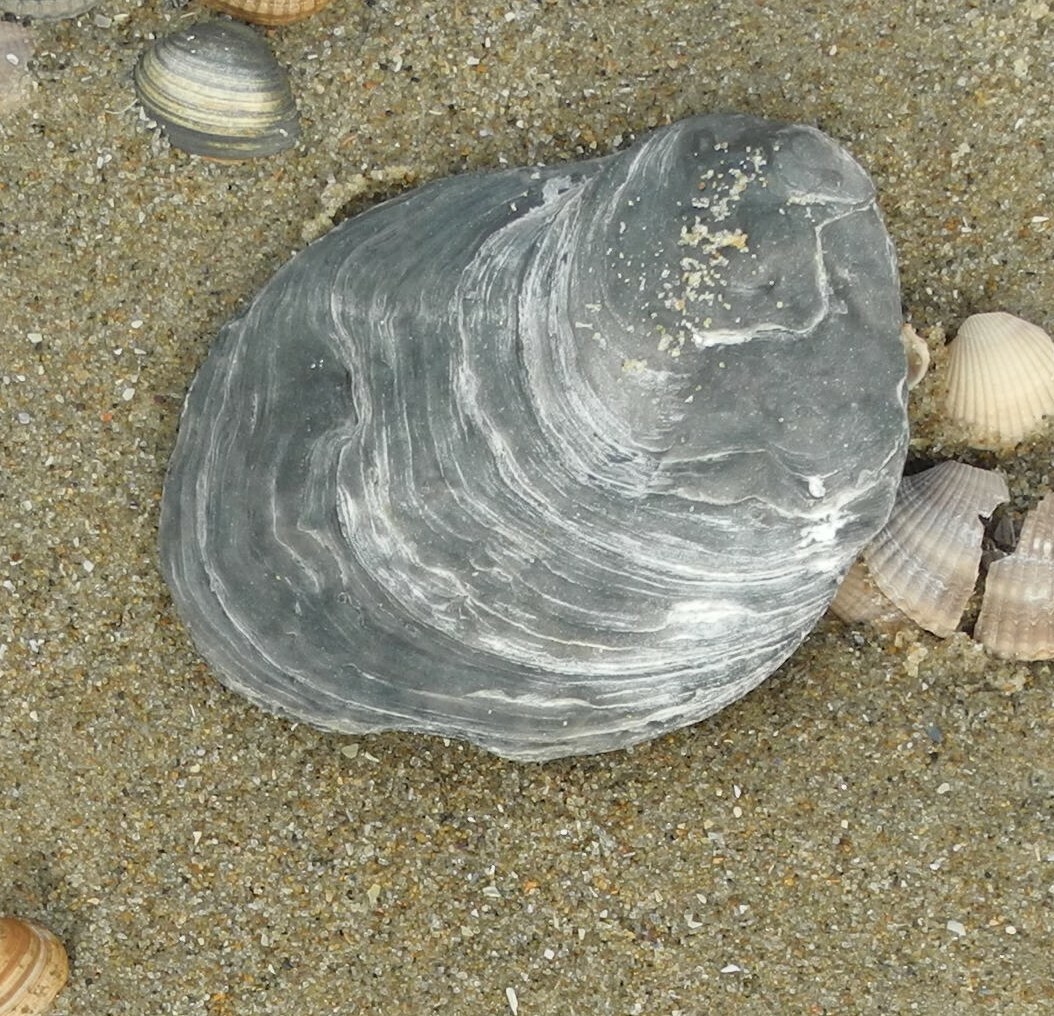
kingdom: Animalia
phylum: Mollusca
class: Bivalvia
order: Ostreida
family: Ostreidae
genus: Ostrea
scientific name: Ostrea edulis
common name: Flat oyster
